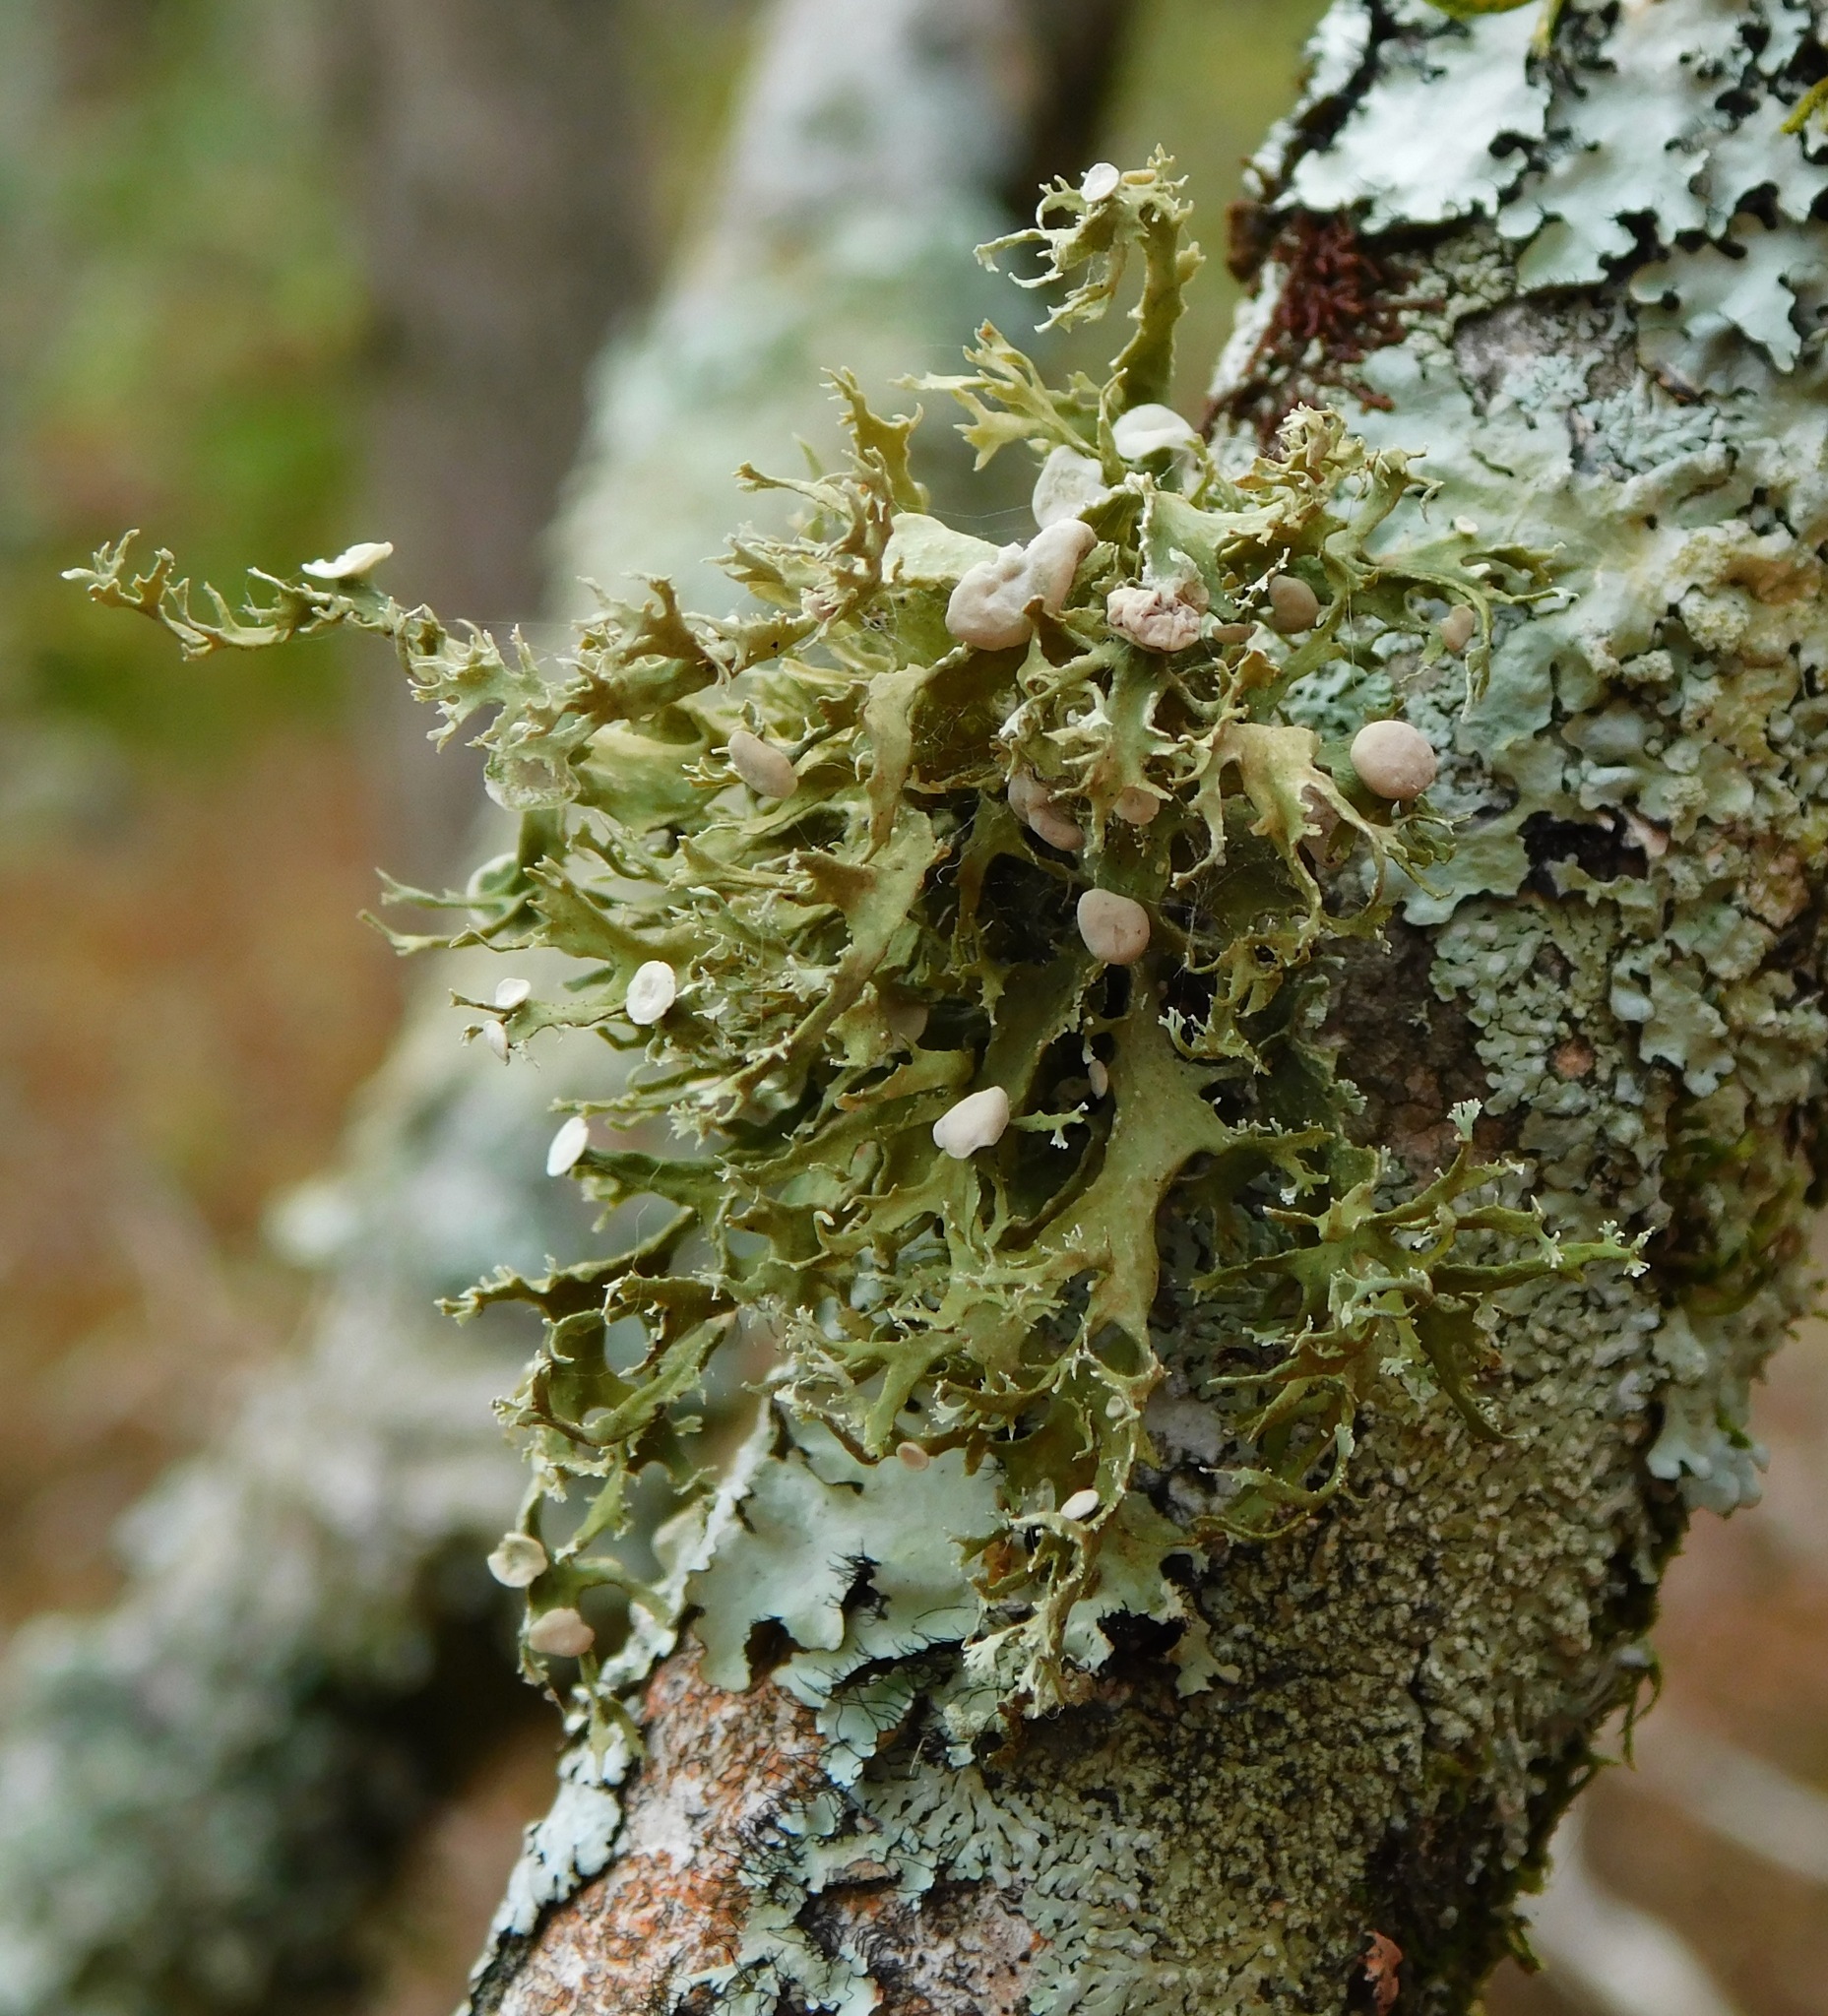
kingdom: Fungi
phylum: Ascomycota
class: Lecanoromycetes
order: Lecanorales
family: Ramalinaceae
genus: Ramalina
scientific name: Ramalina americana
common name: Sinewed bush lichen
